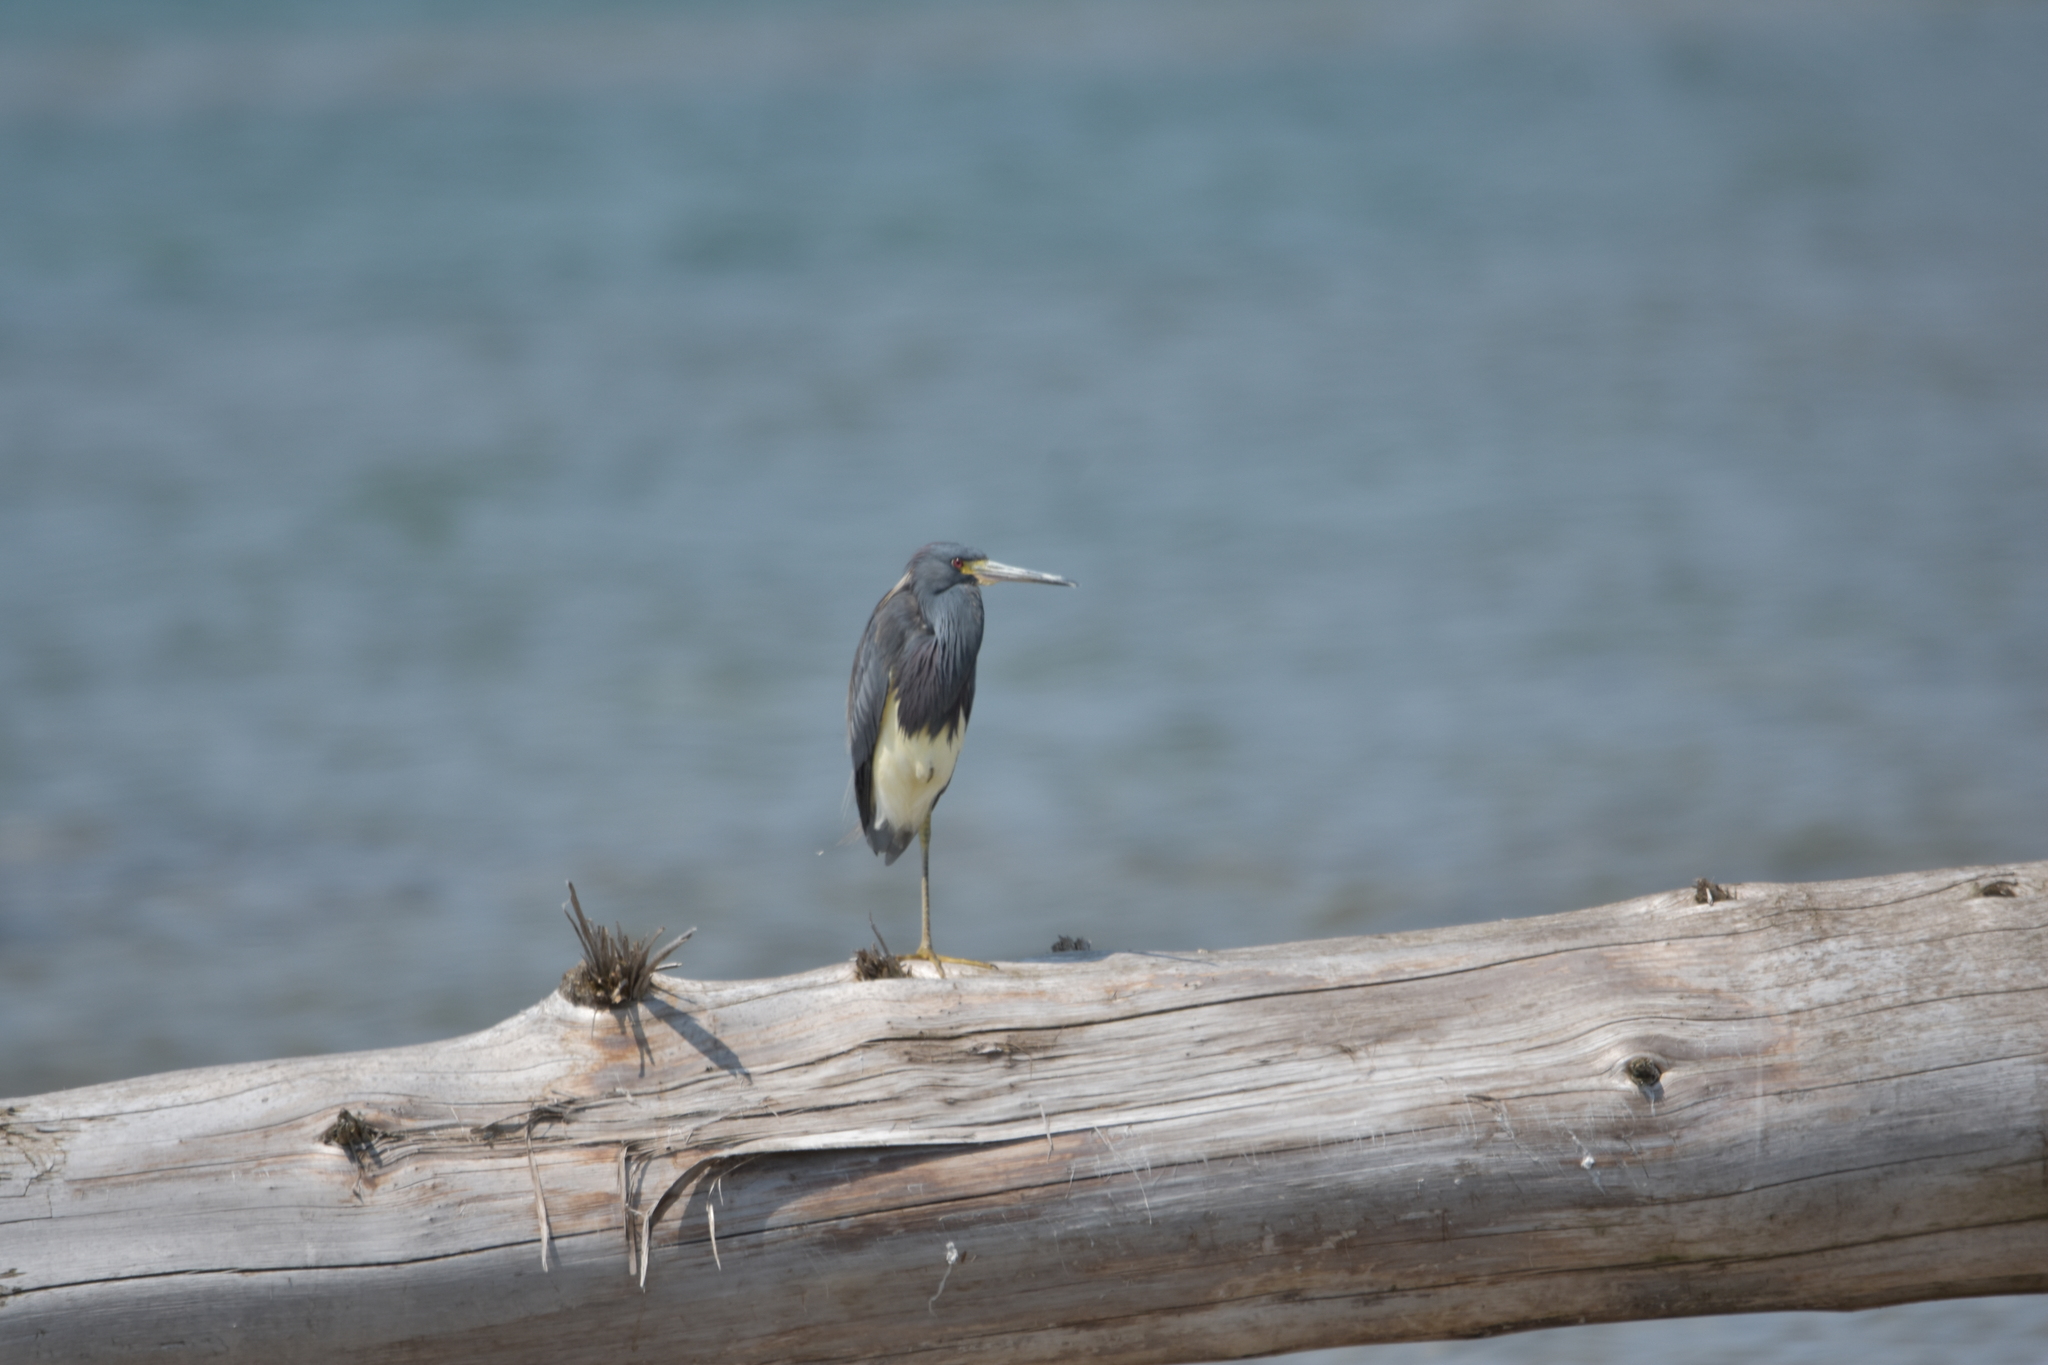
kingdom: Animalia
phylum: Chordata
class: Aves
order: Pelecaniformes
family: Ardeidae
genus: Egretta
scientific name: Egretta tricolor
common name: Tricolored heron
